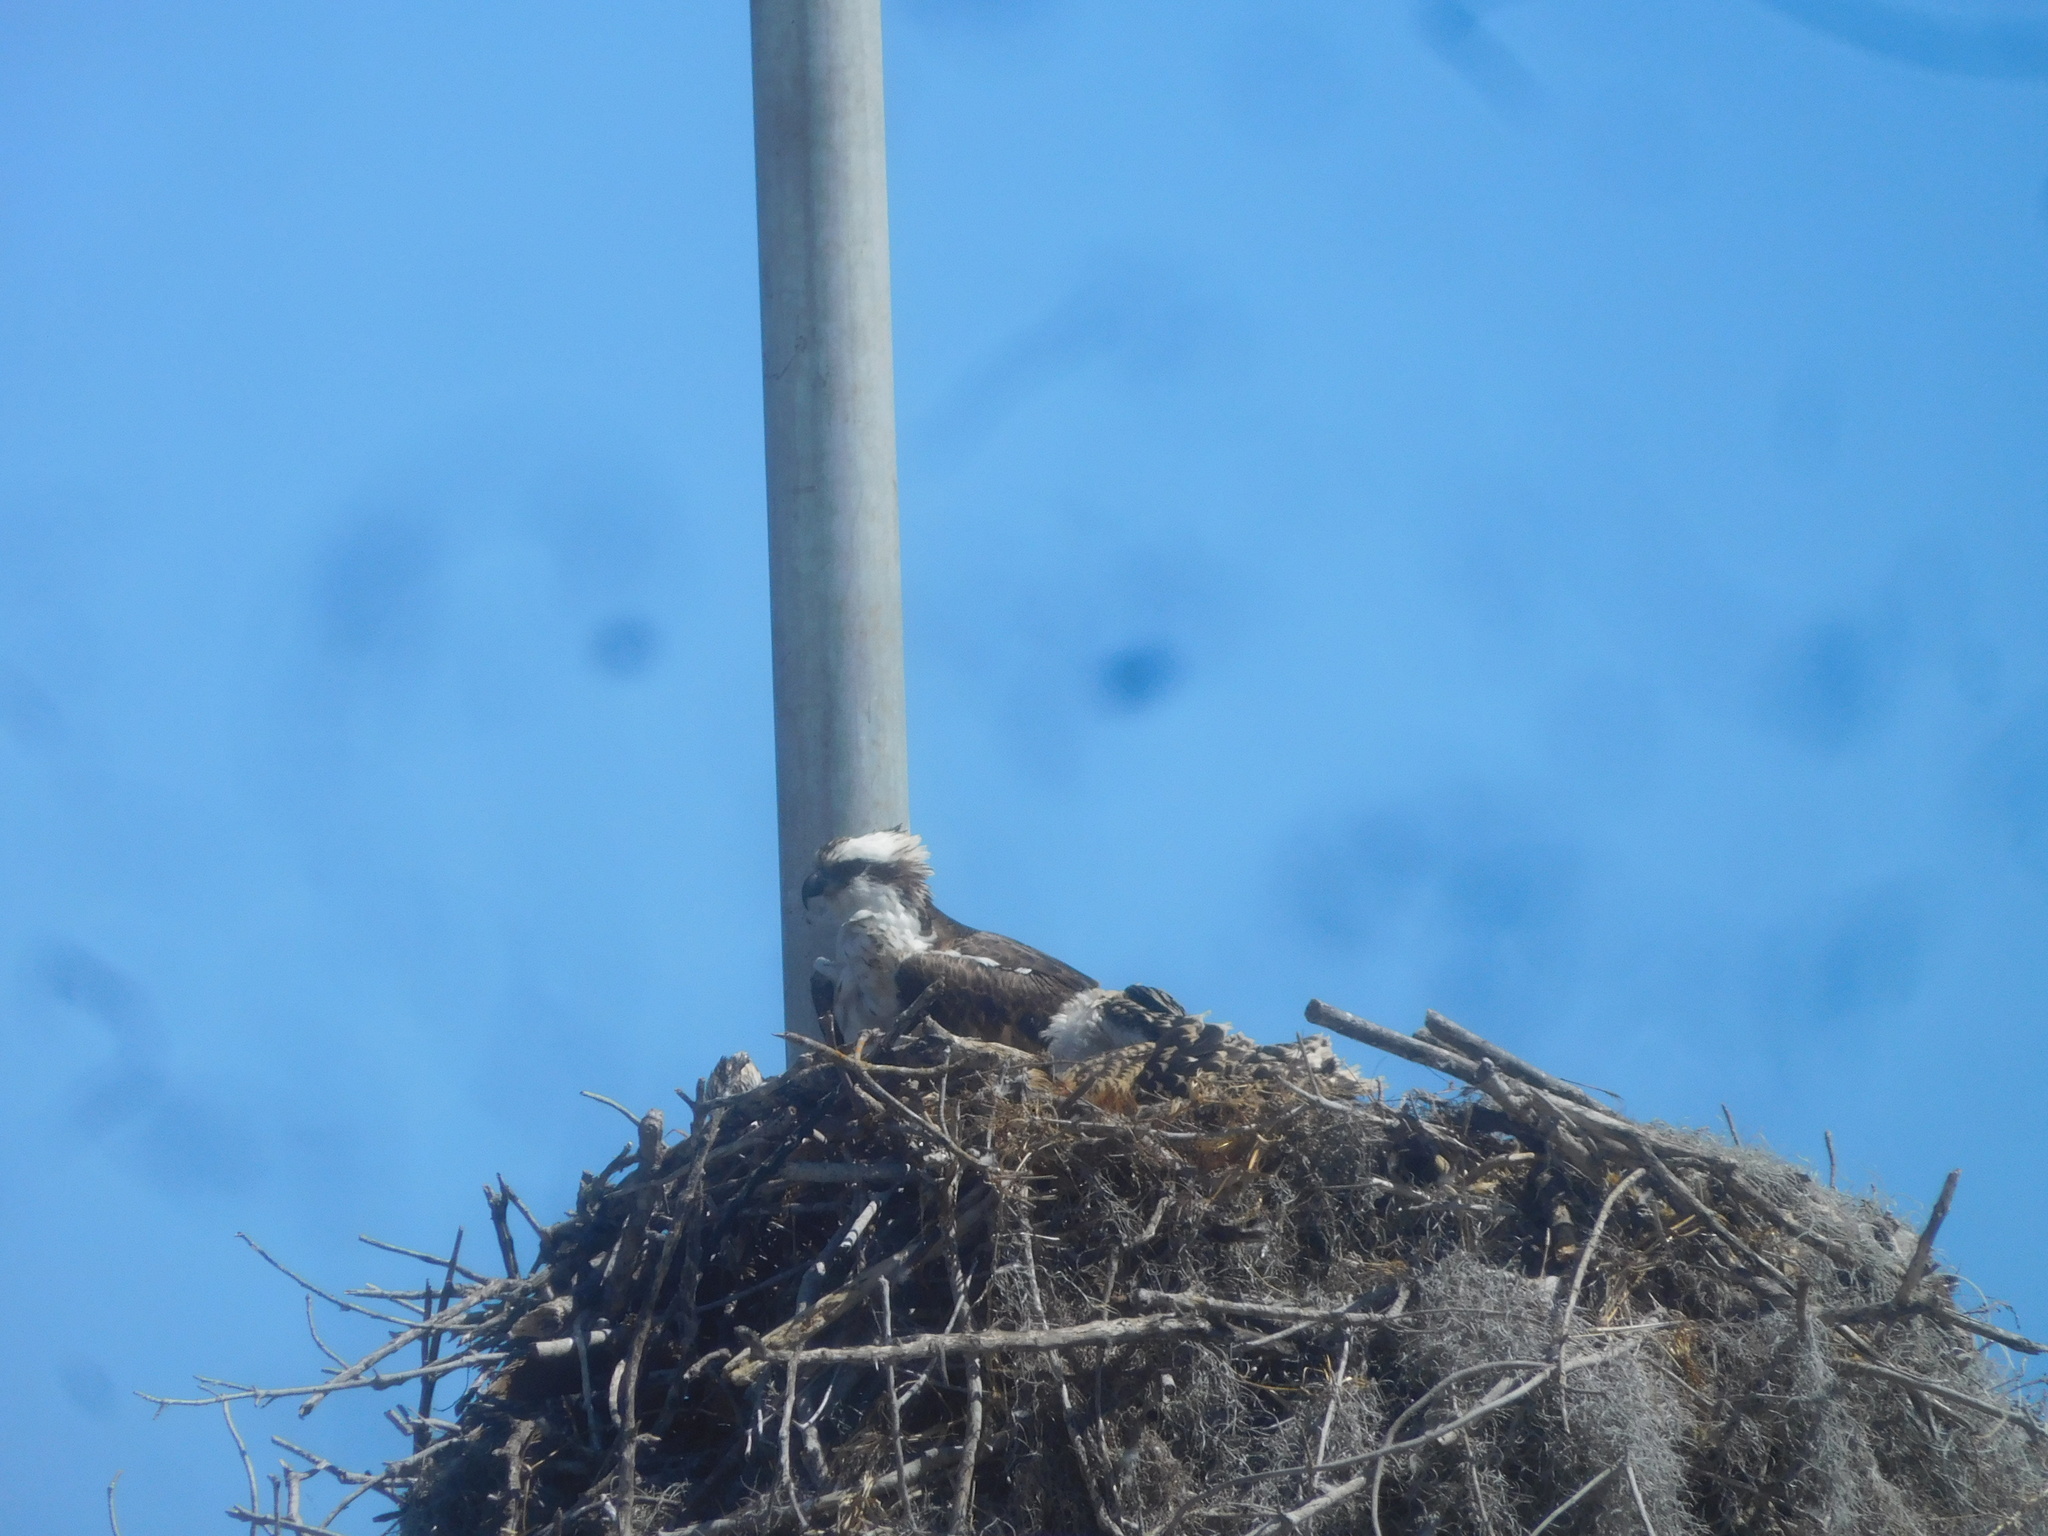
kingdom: Animalia
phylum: Chordata
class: Aves
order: Accipitriformes
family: Pandionidae
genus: Pandion
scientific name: Pandion haliaetus
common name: Osprey
